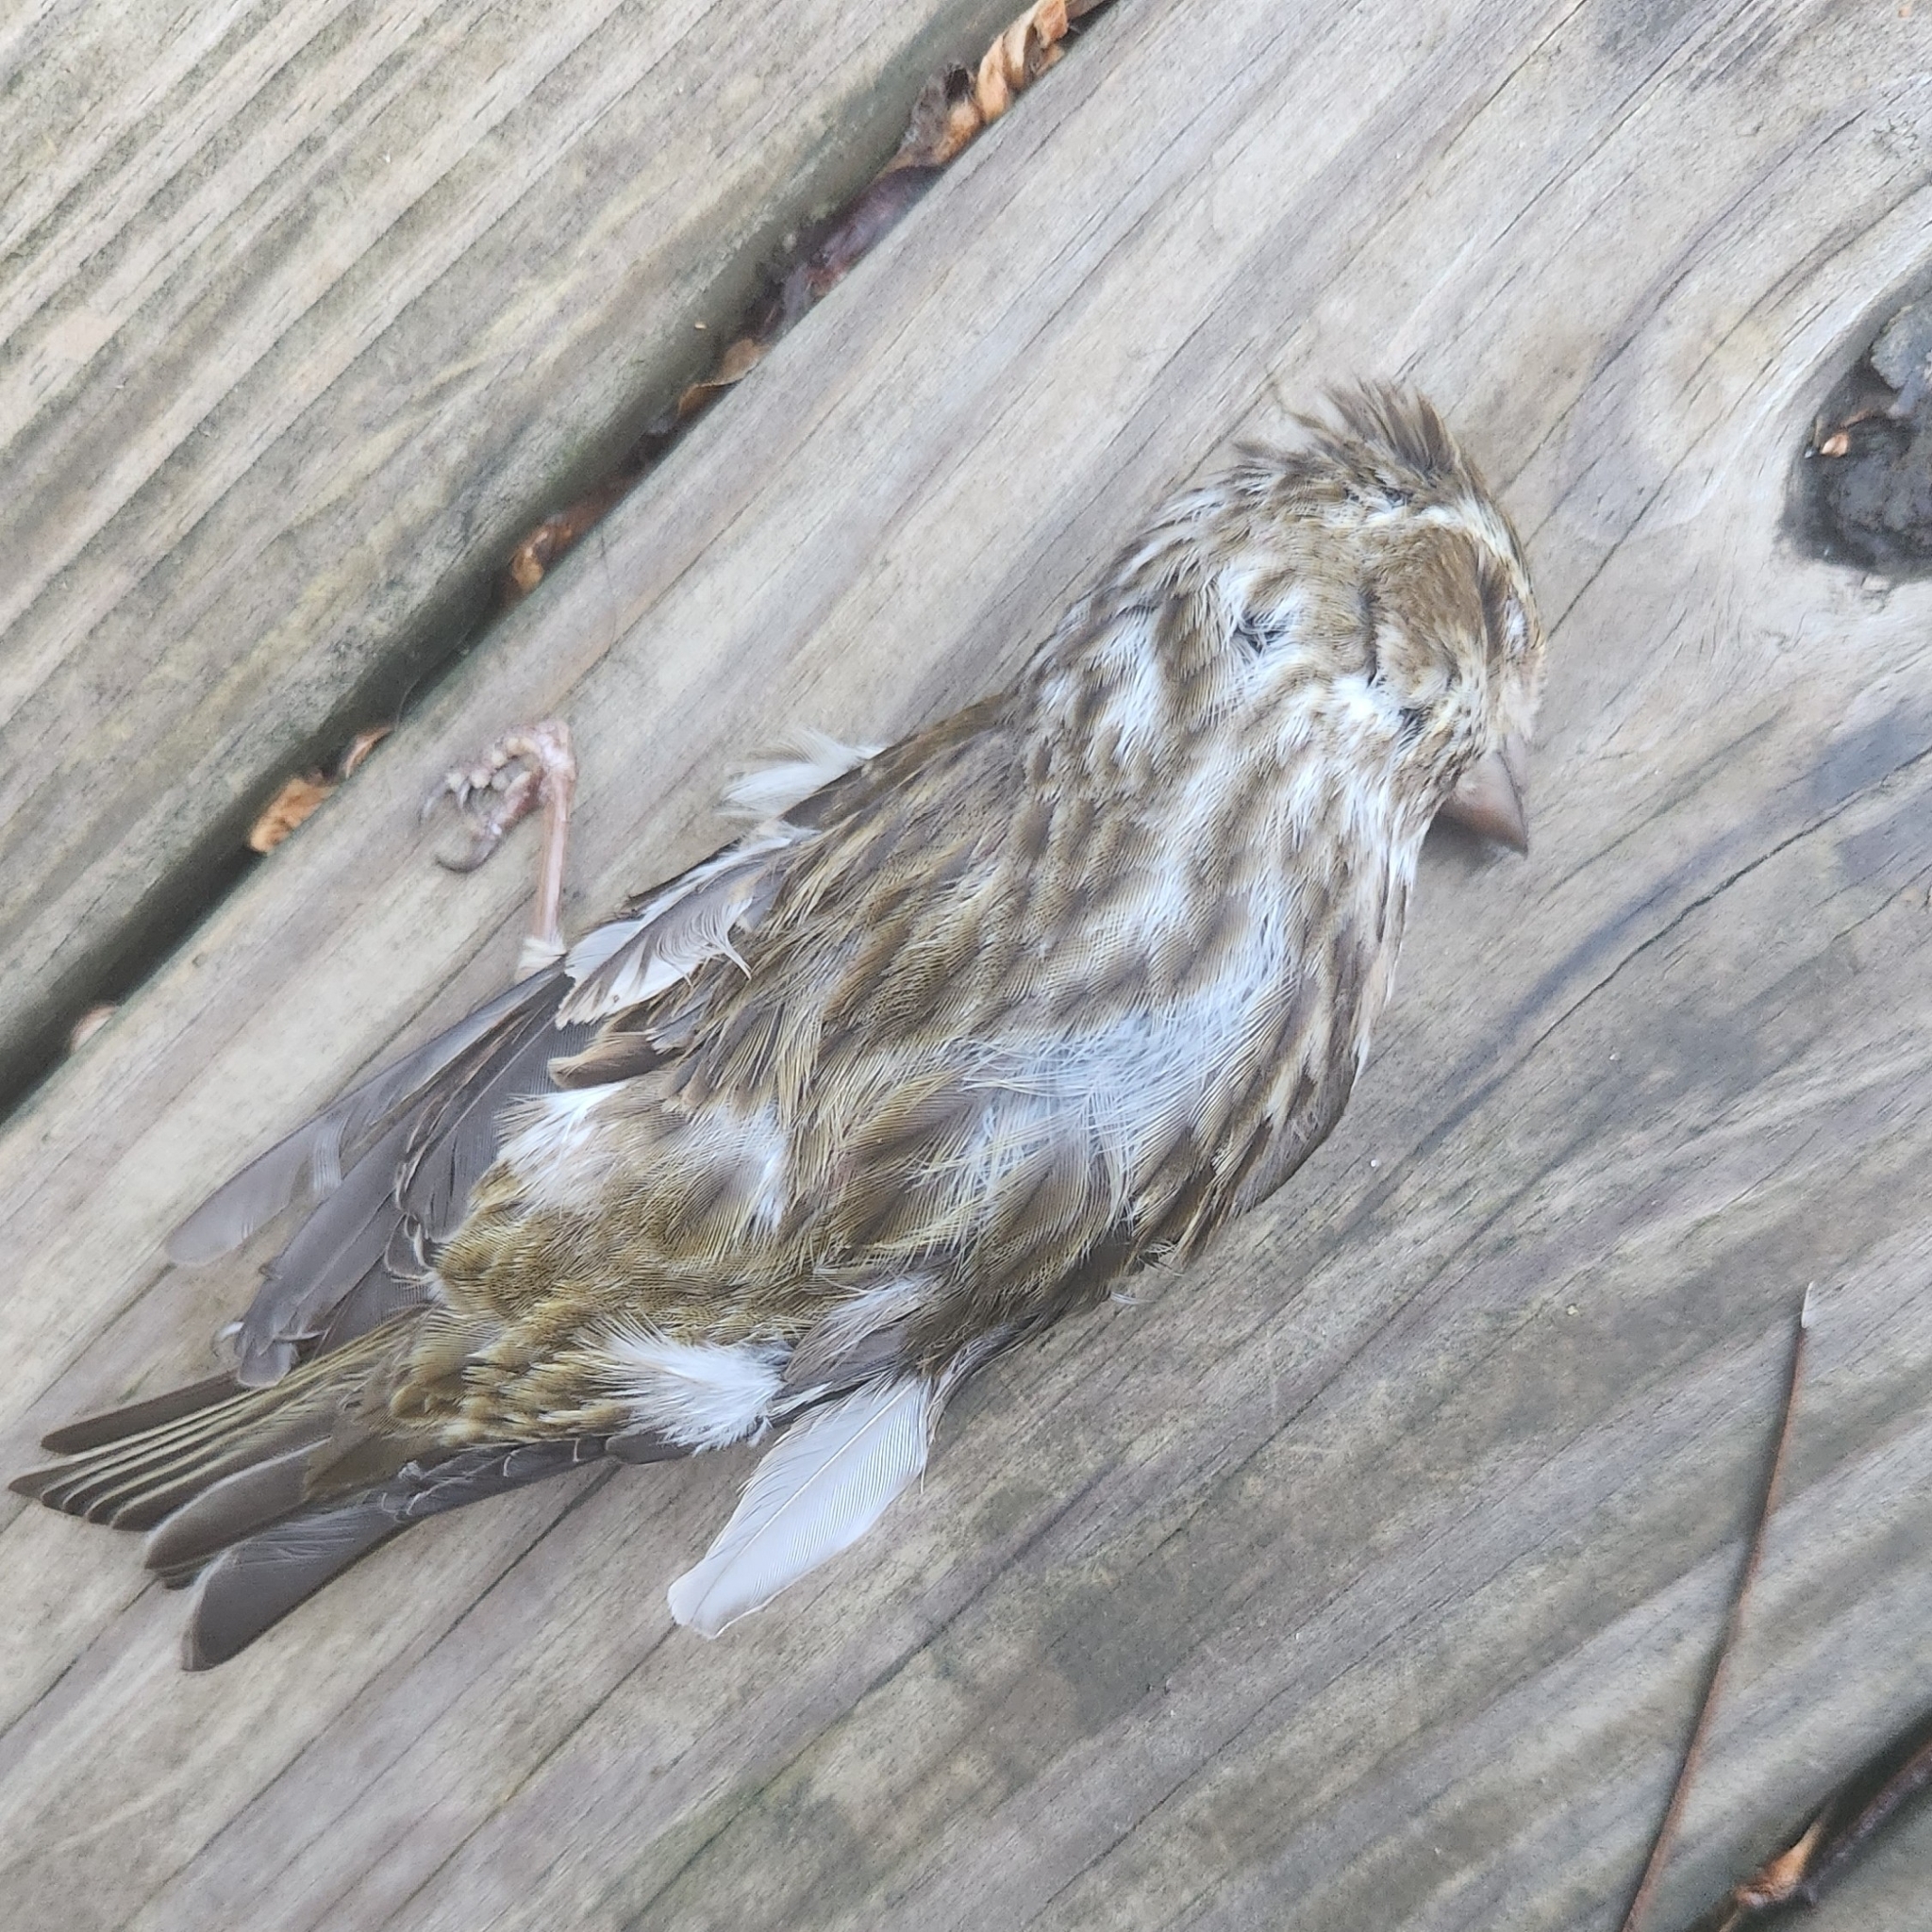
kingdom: Animalia
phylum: Chordata
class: Aves
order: Passeriformes
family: Fringillidae
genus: Haemorhous
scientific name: Haemorhous purpureus
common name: Purple finch
